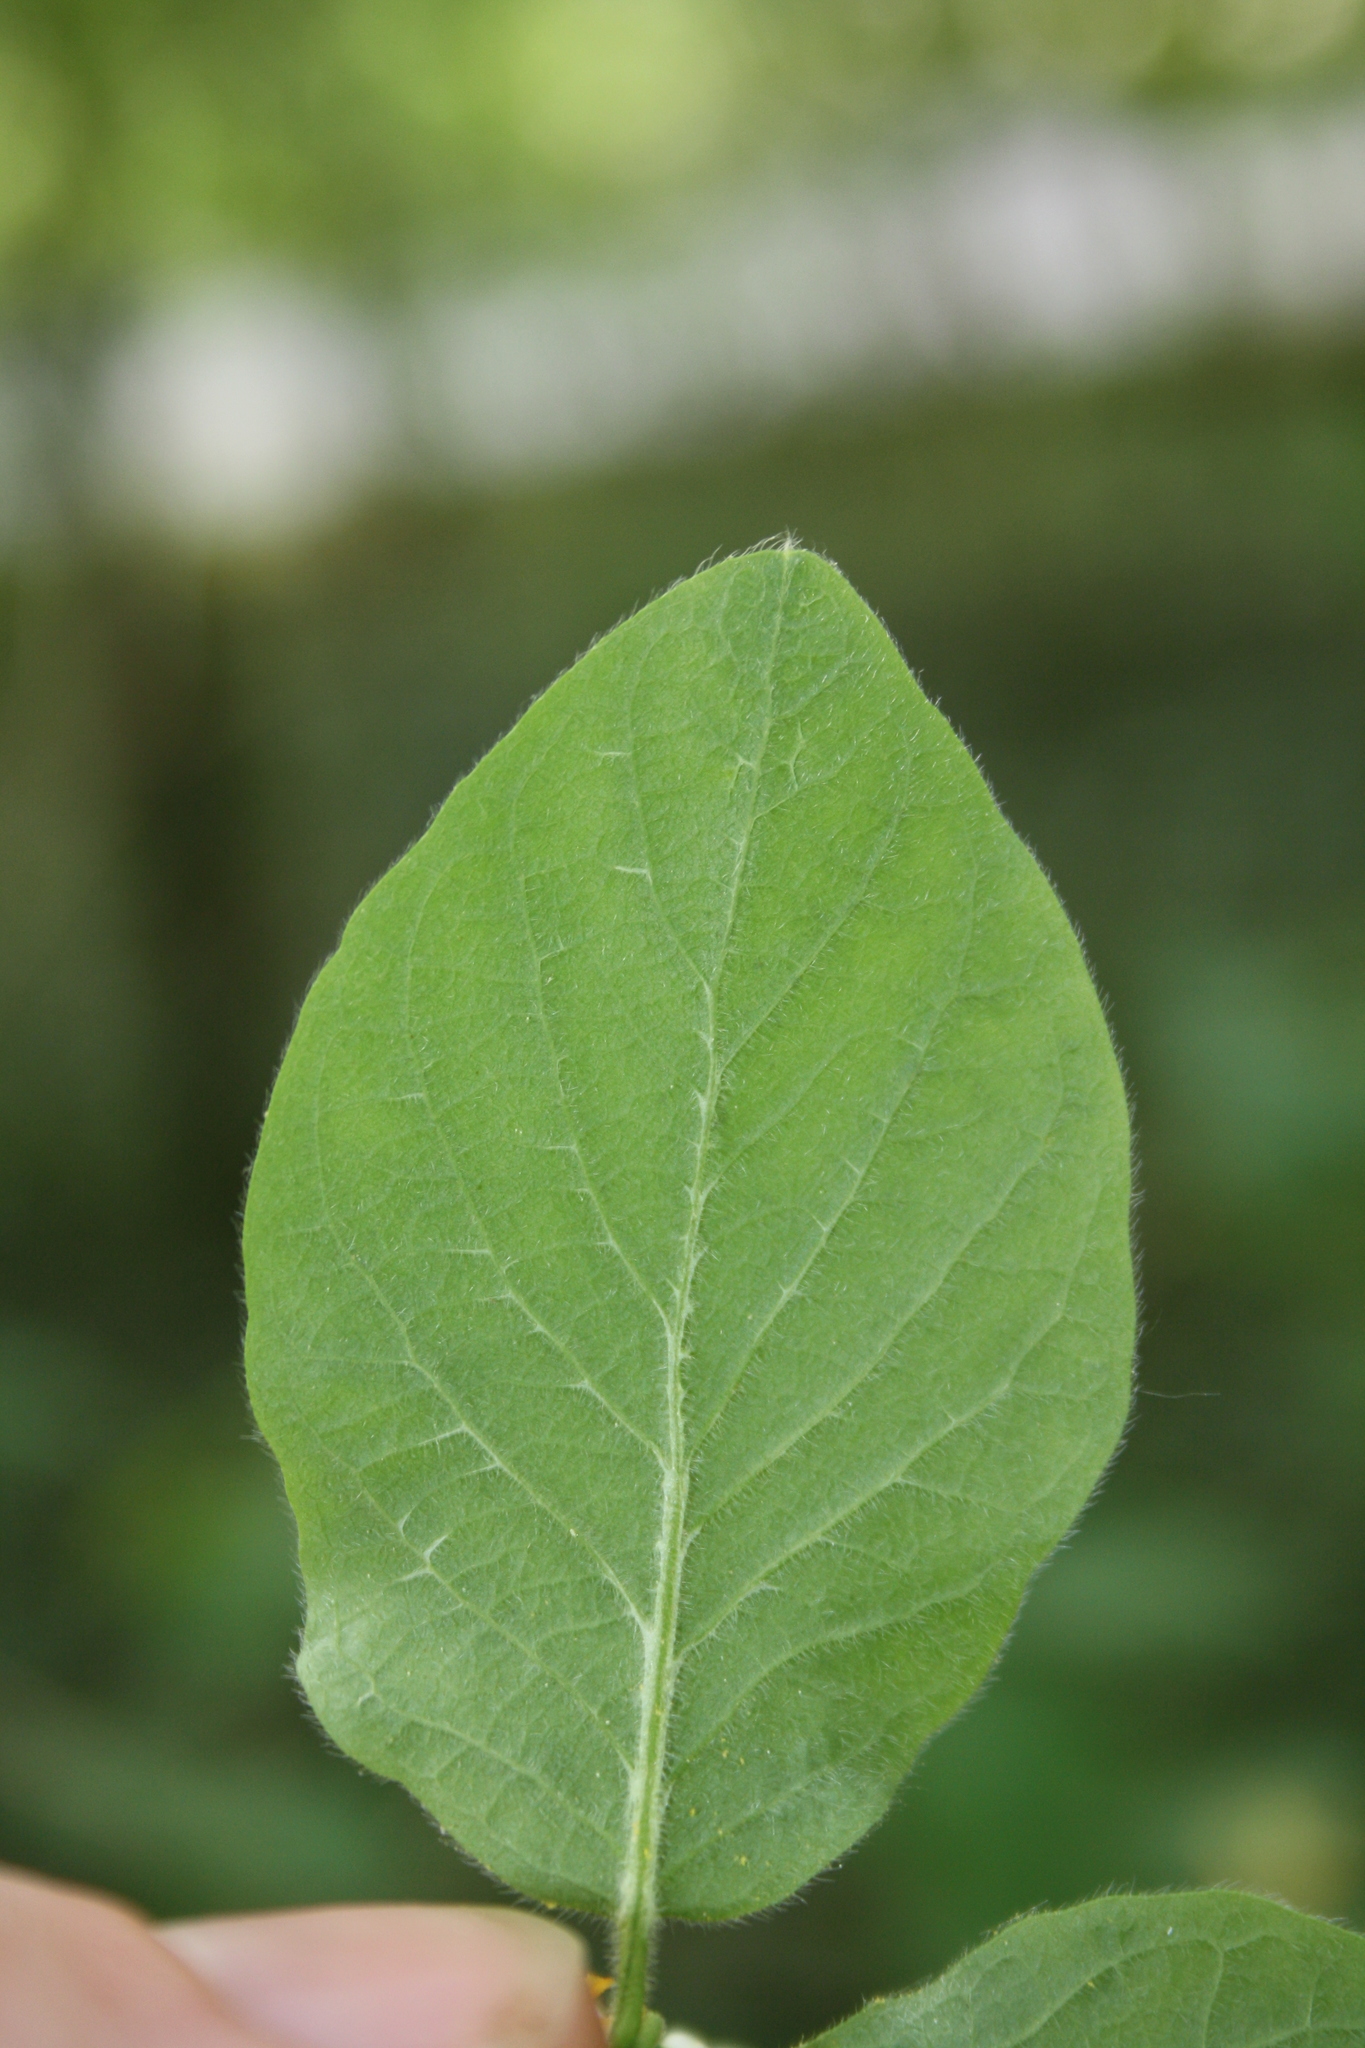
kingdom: Plantae
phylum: Tracheophyta
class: Magnoliopsida
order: Dipsacales
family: Caprifoliaceae
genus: Lonicera
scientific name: Lonicera xylosteum
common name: Fly honeysuckle
